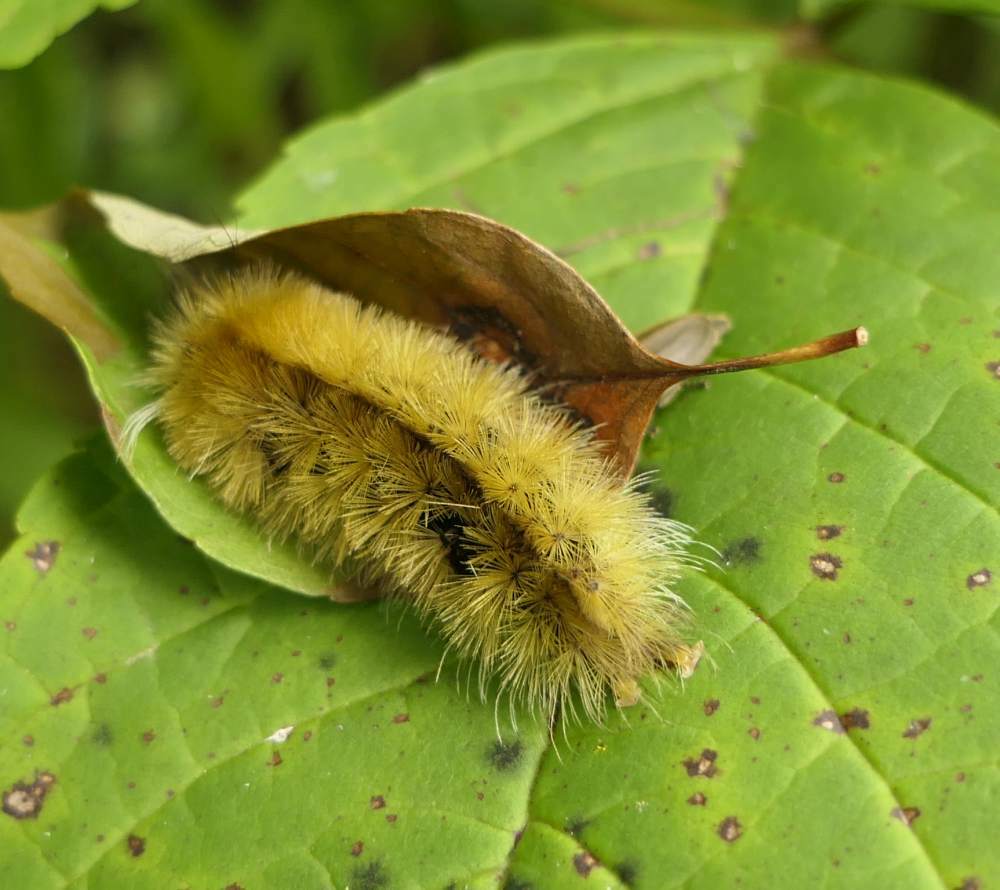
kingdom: Animalia
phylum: Arthropoda
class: Insecta
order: Lepidoptera
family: Erebidae
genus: Halysidota
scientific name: Halysidota tessellaris
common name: Banded tussock moth
